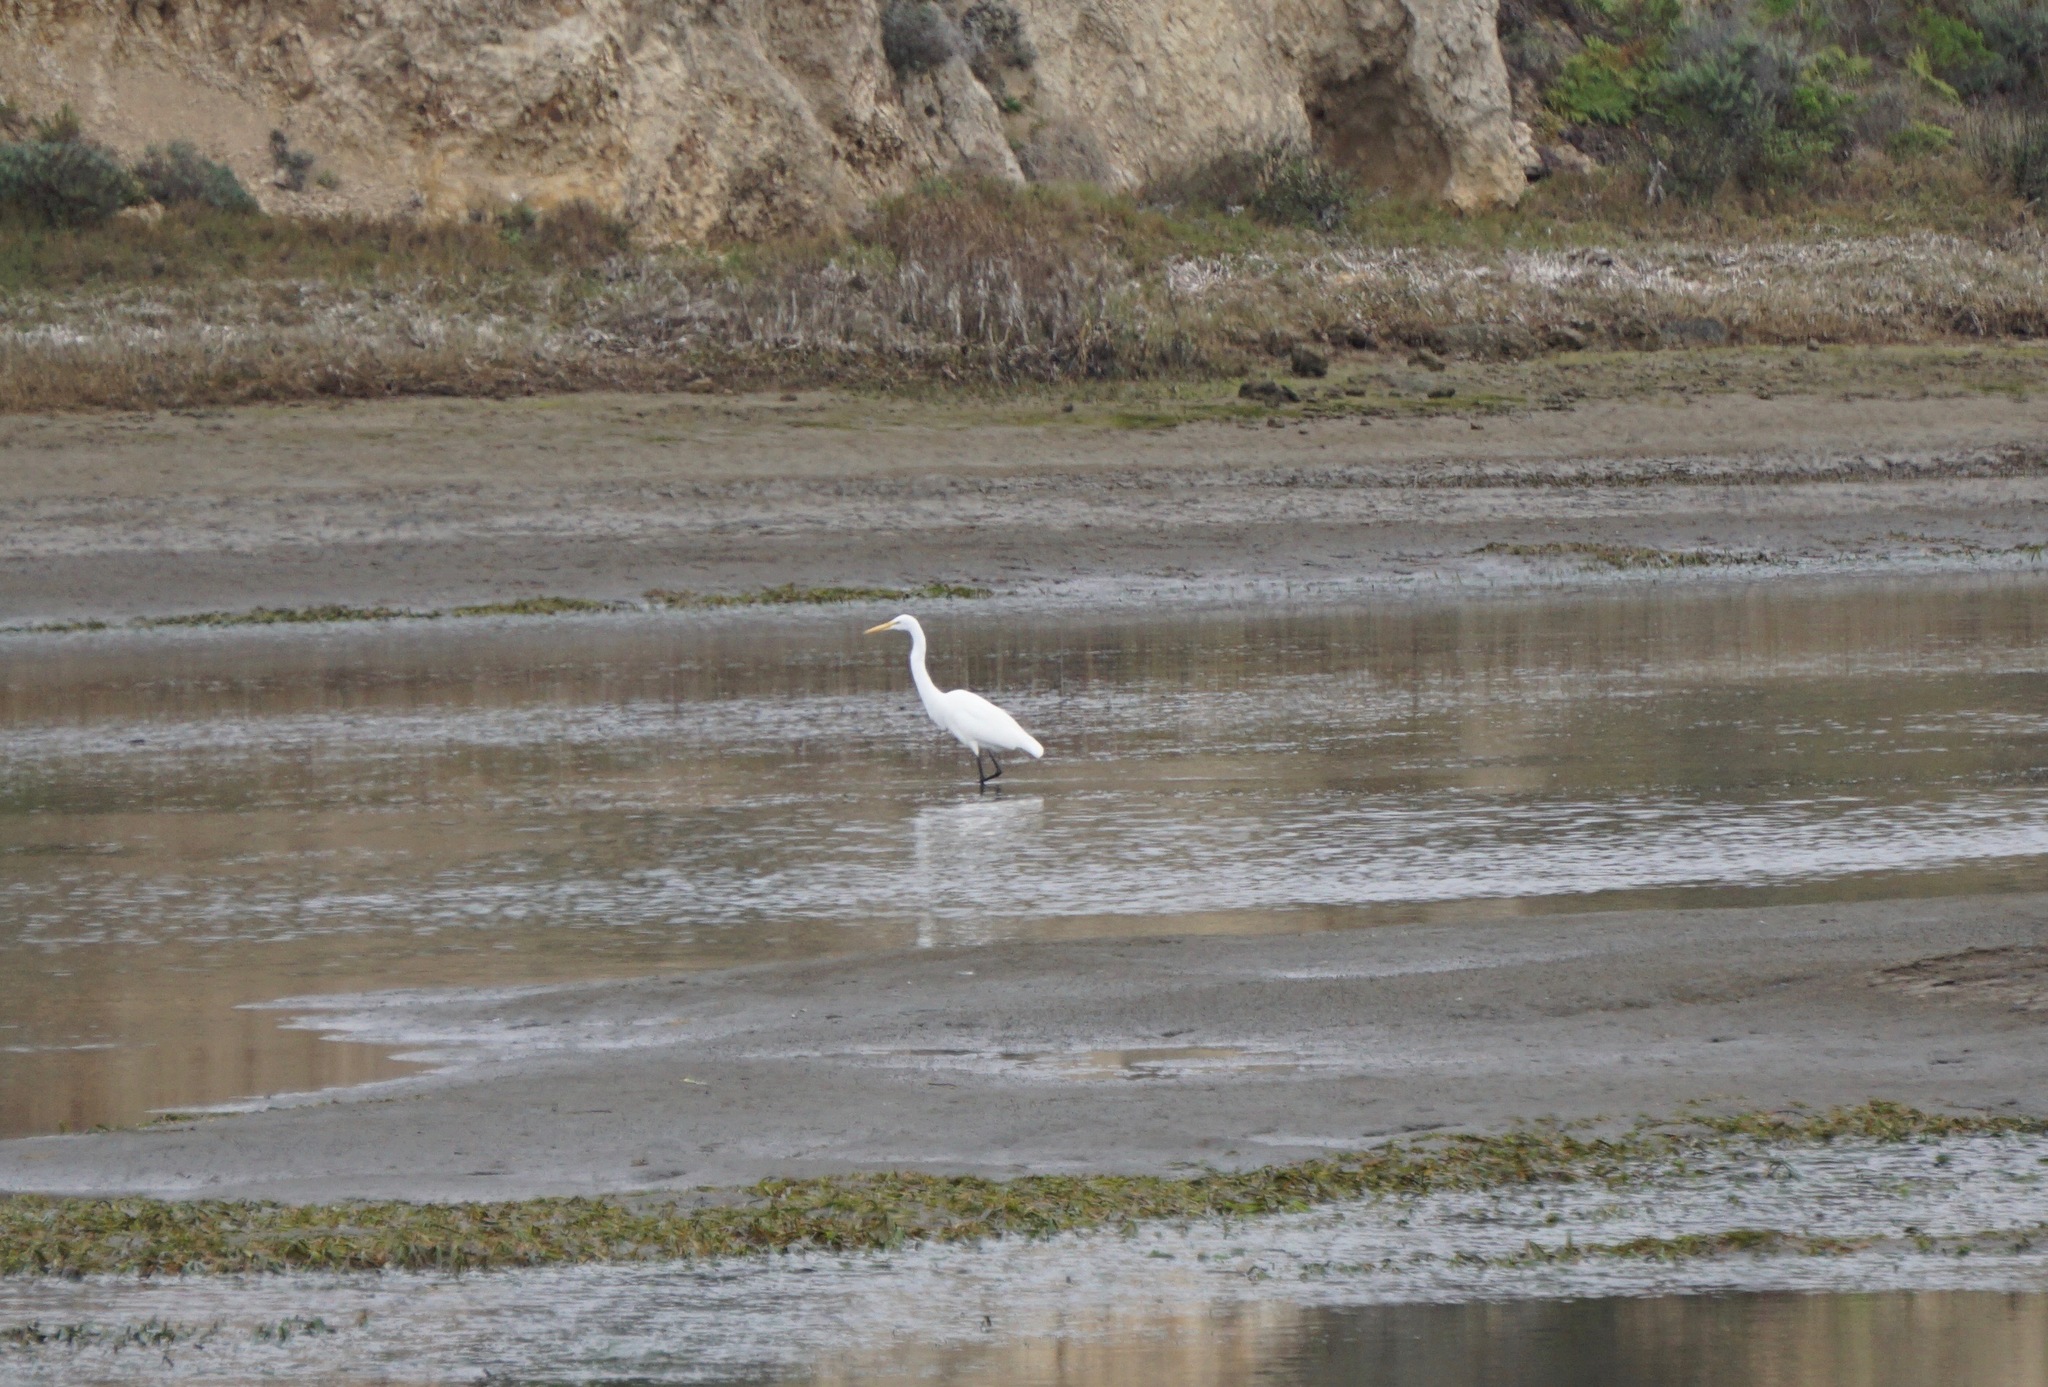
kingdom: Animalia
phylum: Chordata
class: Aves
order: Pelecaniformes
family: Ardeidae
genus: Ardea
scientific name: Ardea alba
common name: Great egret
